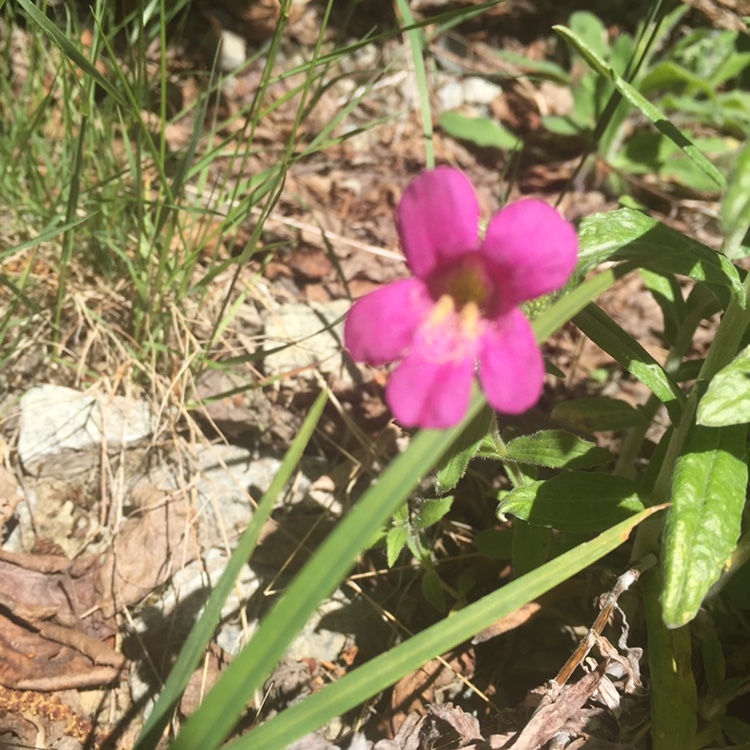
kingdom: Plantae
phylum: Tracheophyta
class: Magnoliopsida
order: Lamiales
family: Phrymaceae
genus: Erythranthe
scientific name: Erythranthe lewisii
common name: Lewis's monkey-flower
